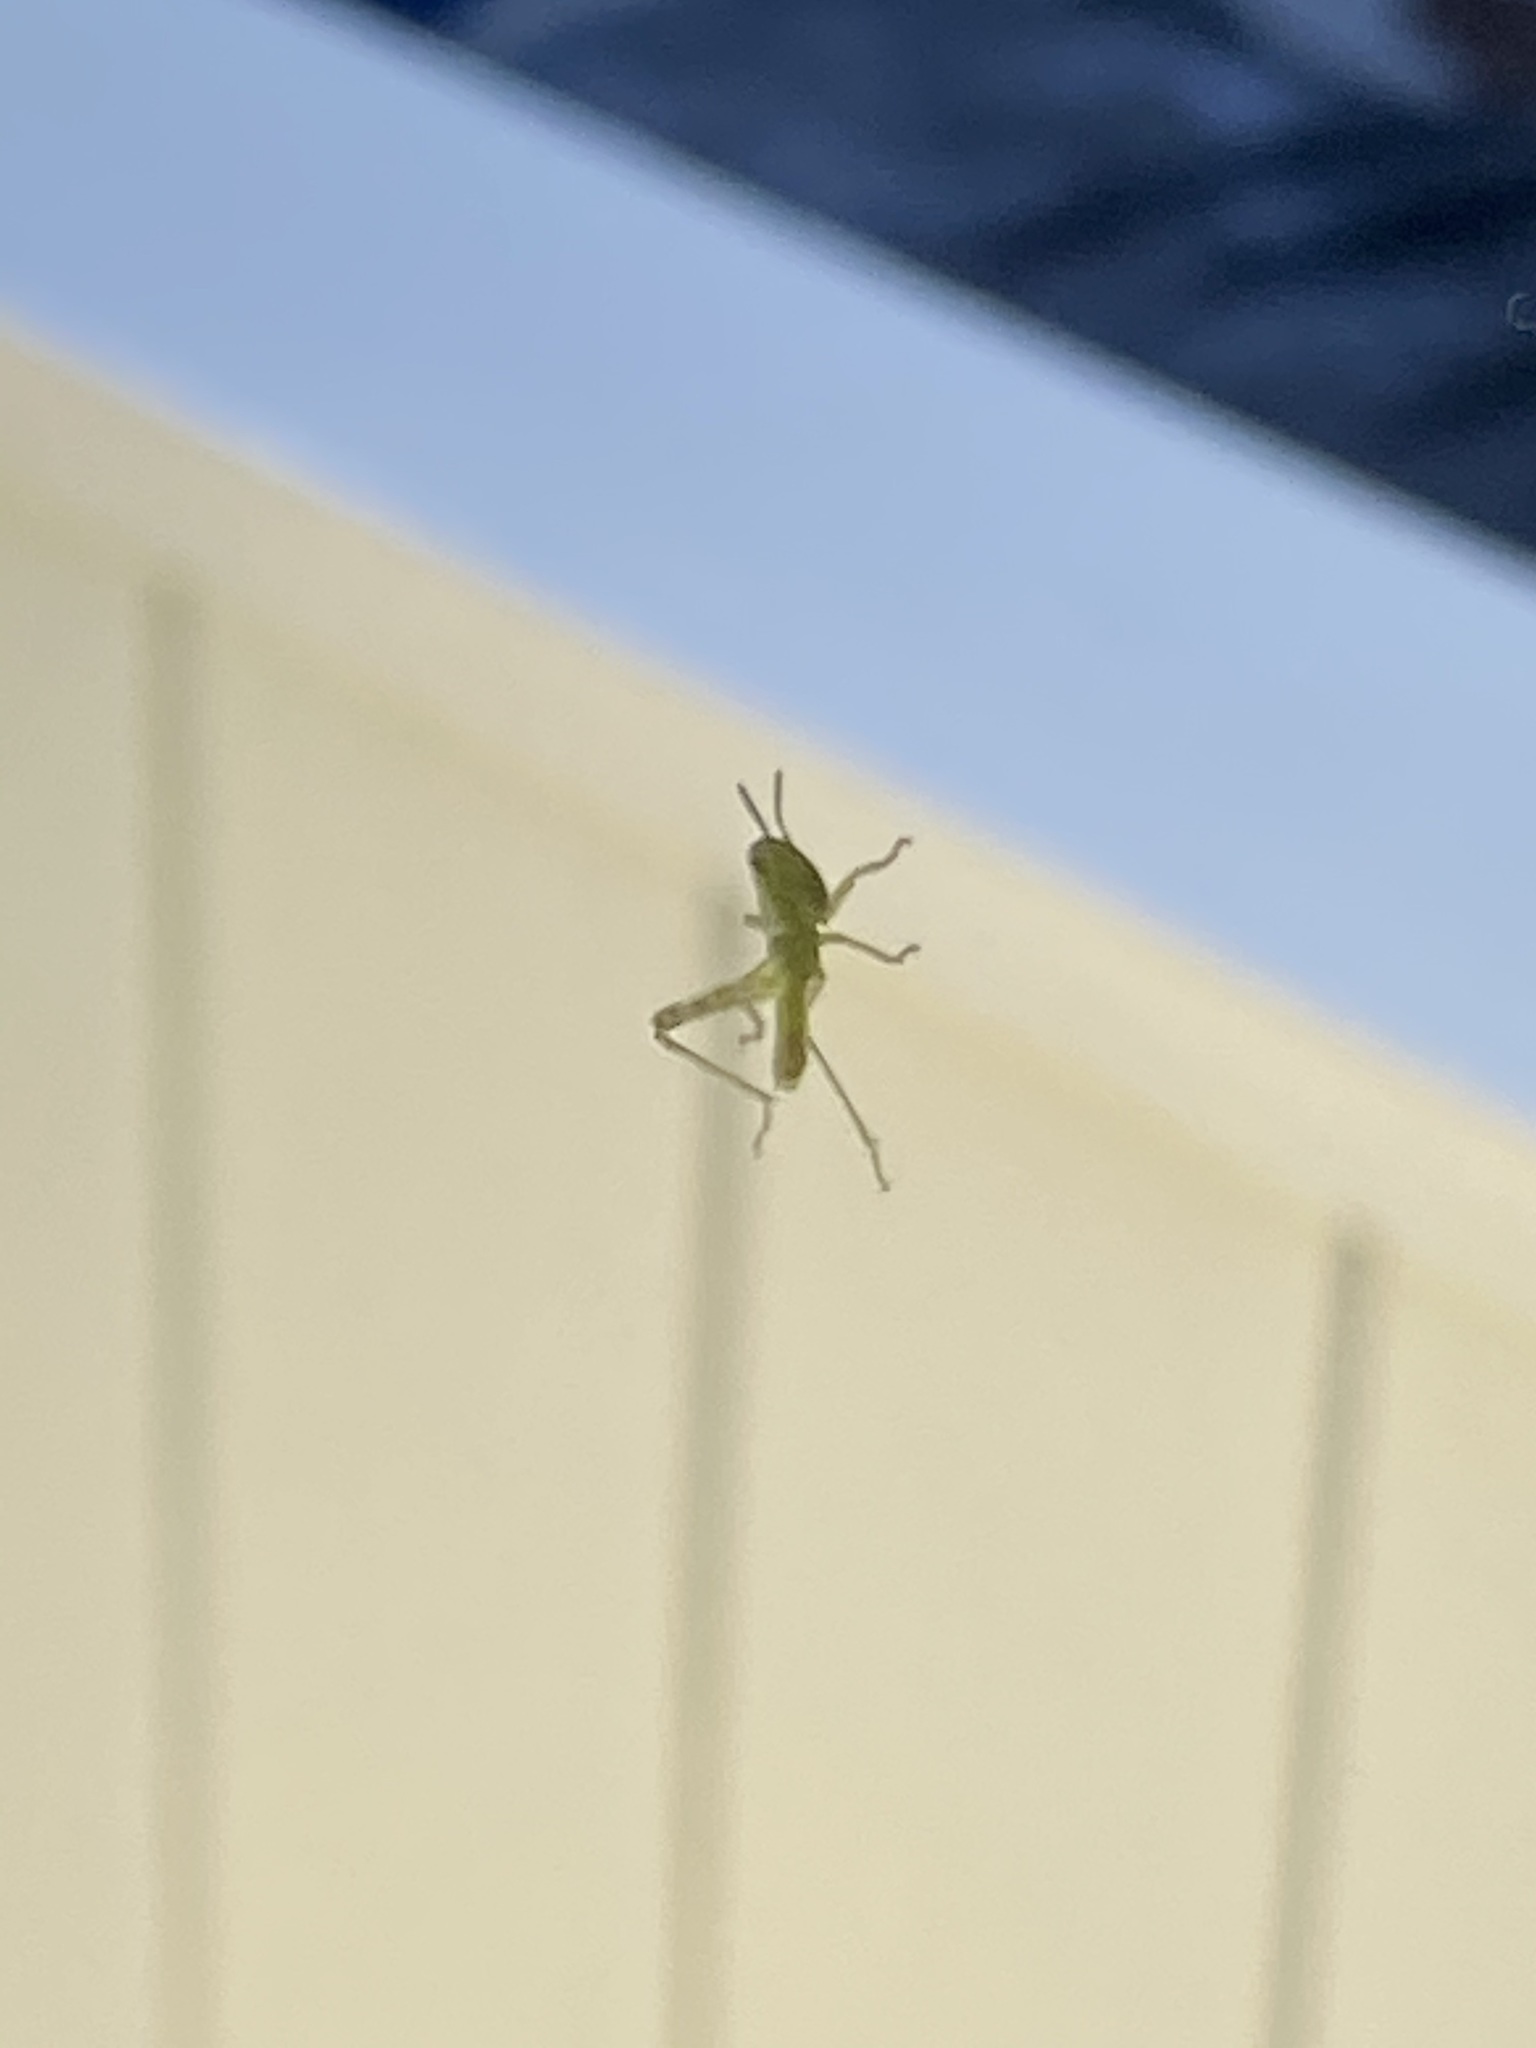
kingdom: Animalia
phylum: Arthropoda
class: Insecta
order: Orthoptera
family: Acrididae
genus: Schistocerca
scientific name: Schistocerca nitens
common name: Vagrant grasshopper
